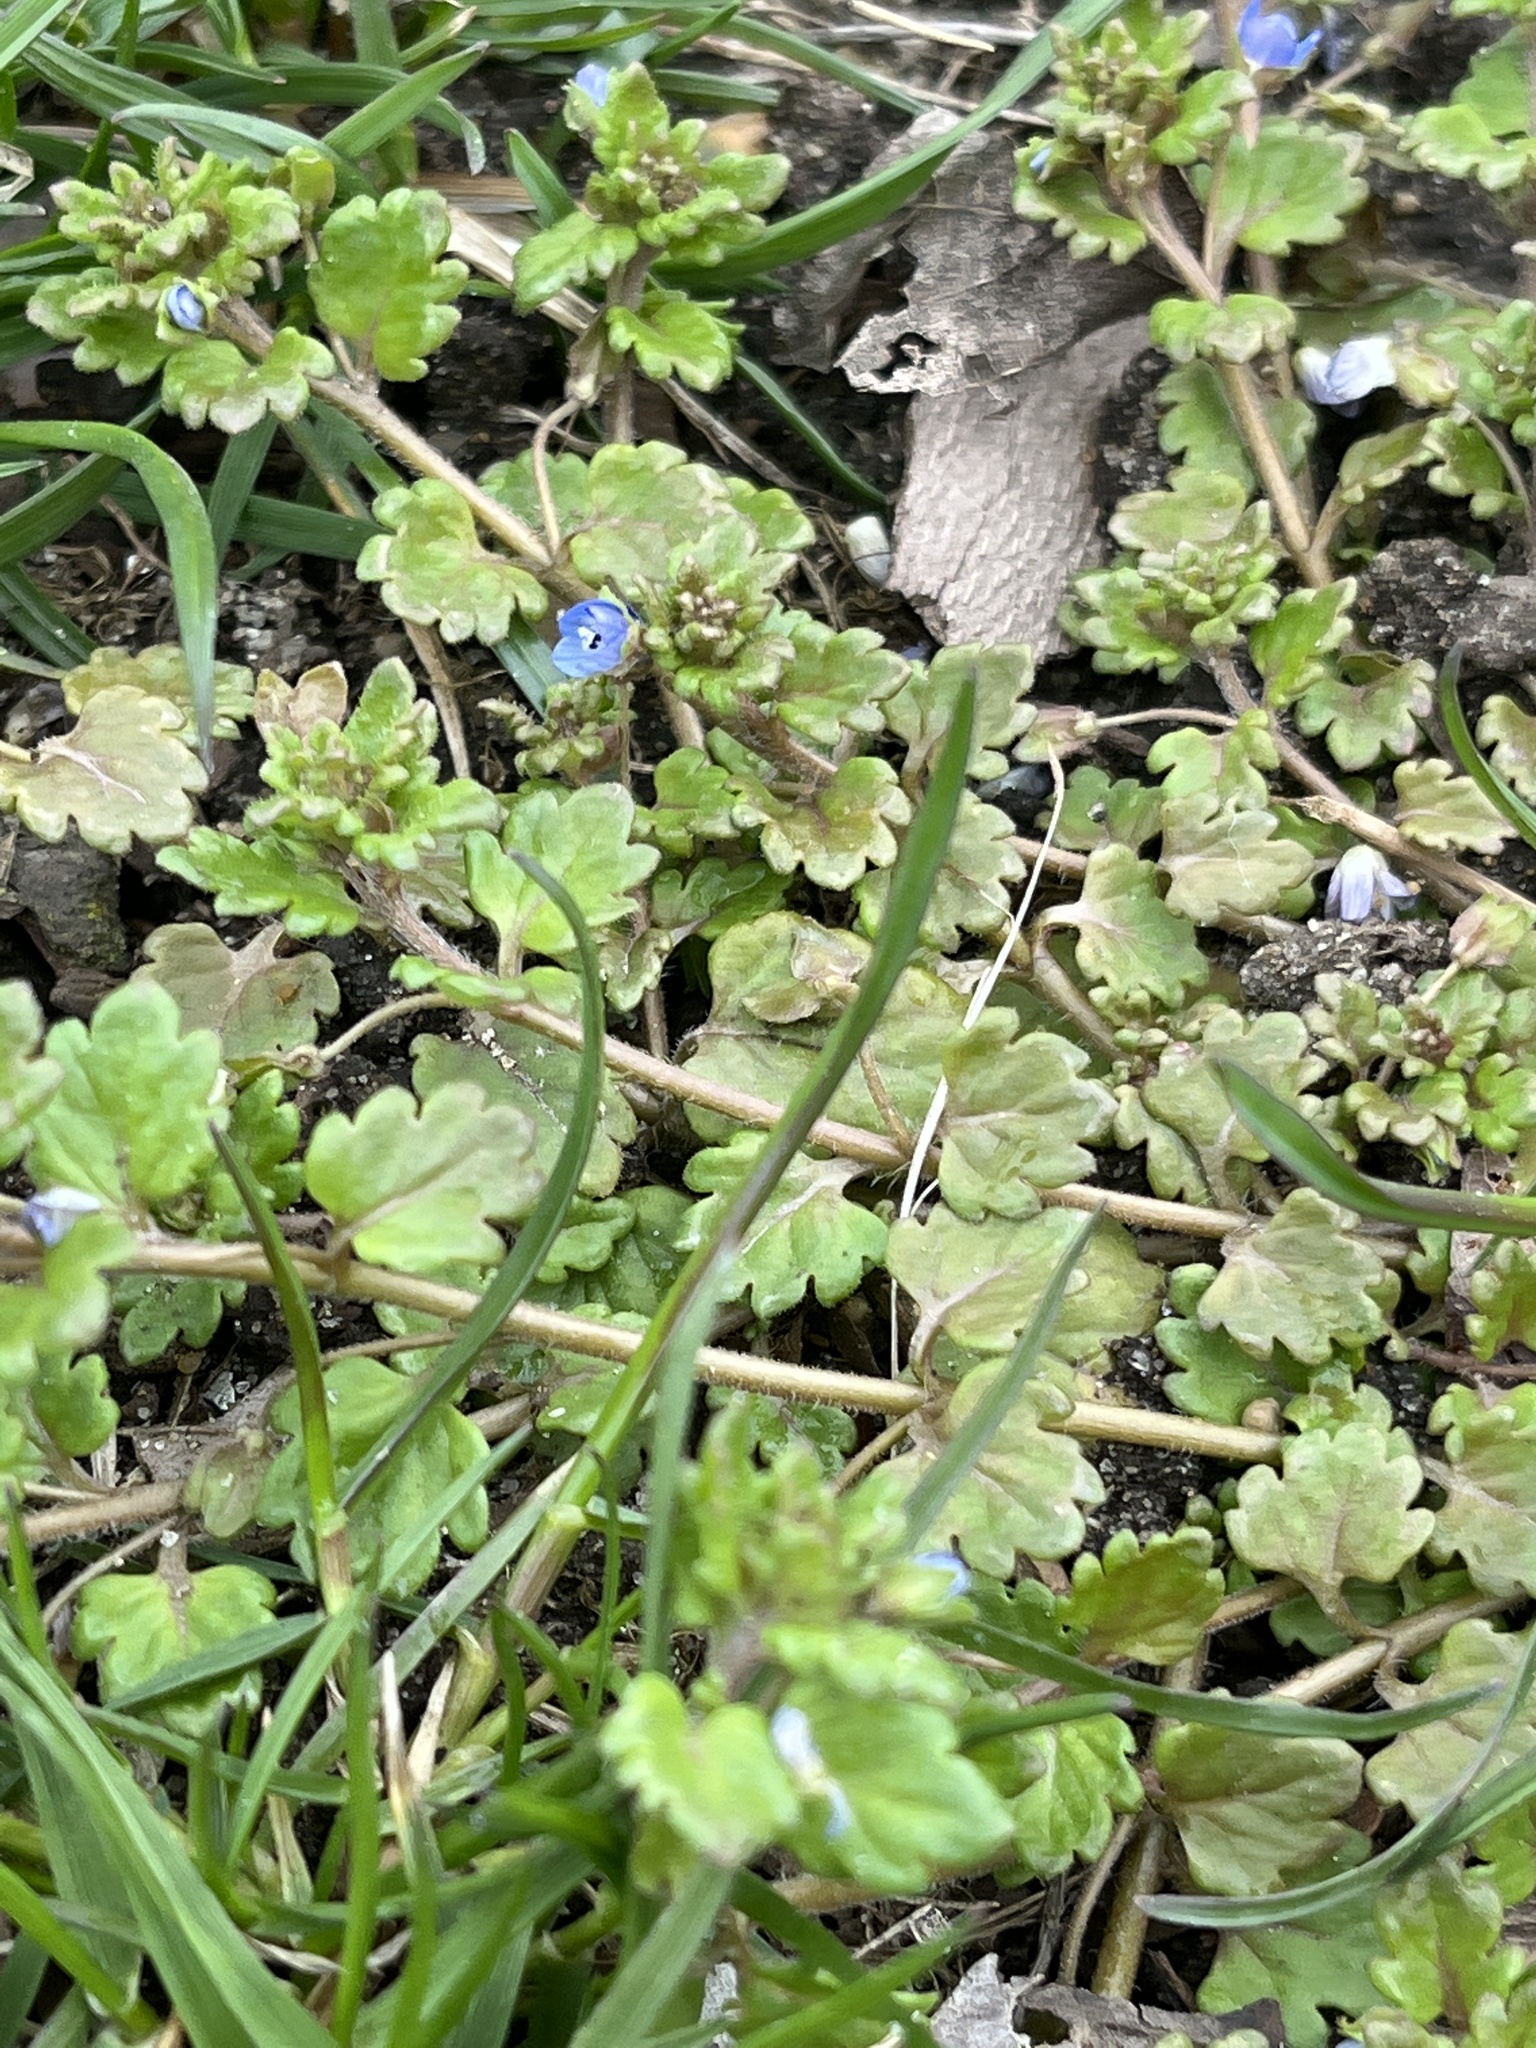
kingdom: Plantae
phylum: Tracheophyta
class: Magnoliopsida
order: Lamiales
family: Plantaginaceae
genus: Veronica
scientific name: Veronica polita
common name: Grey field-speedwell
